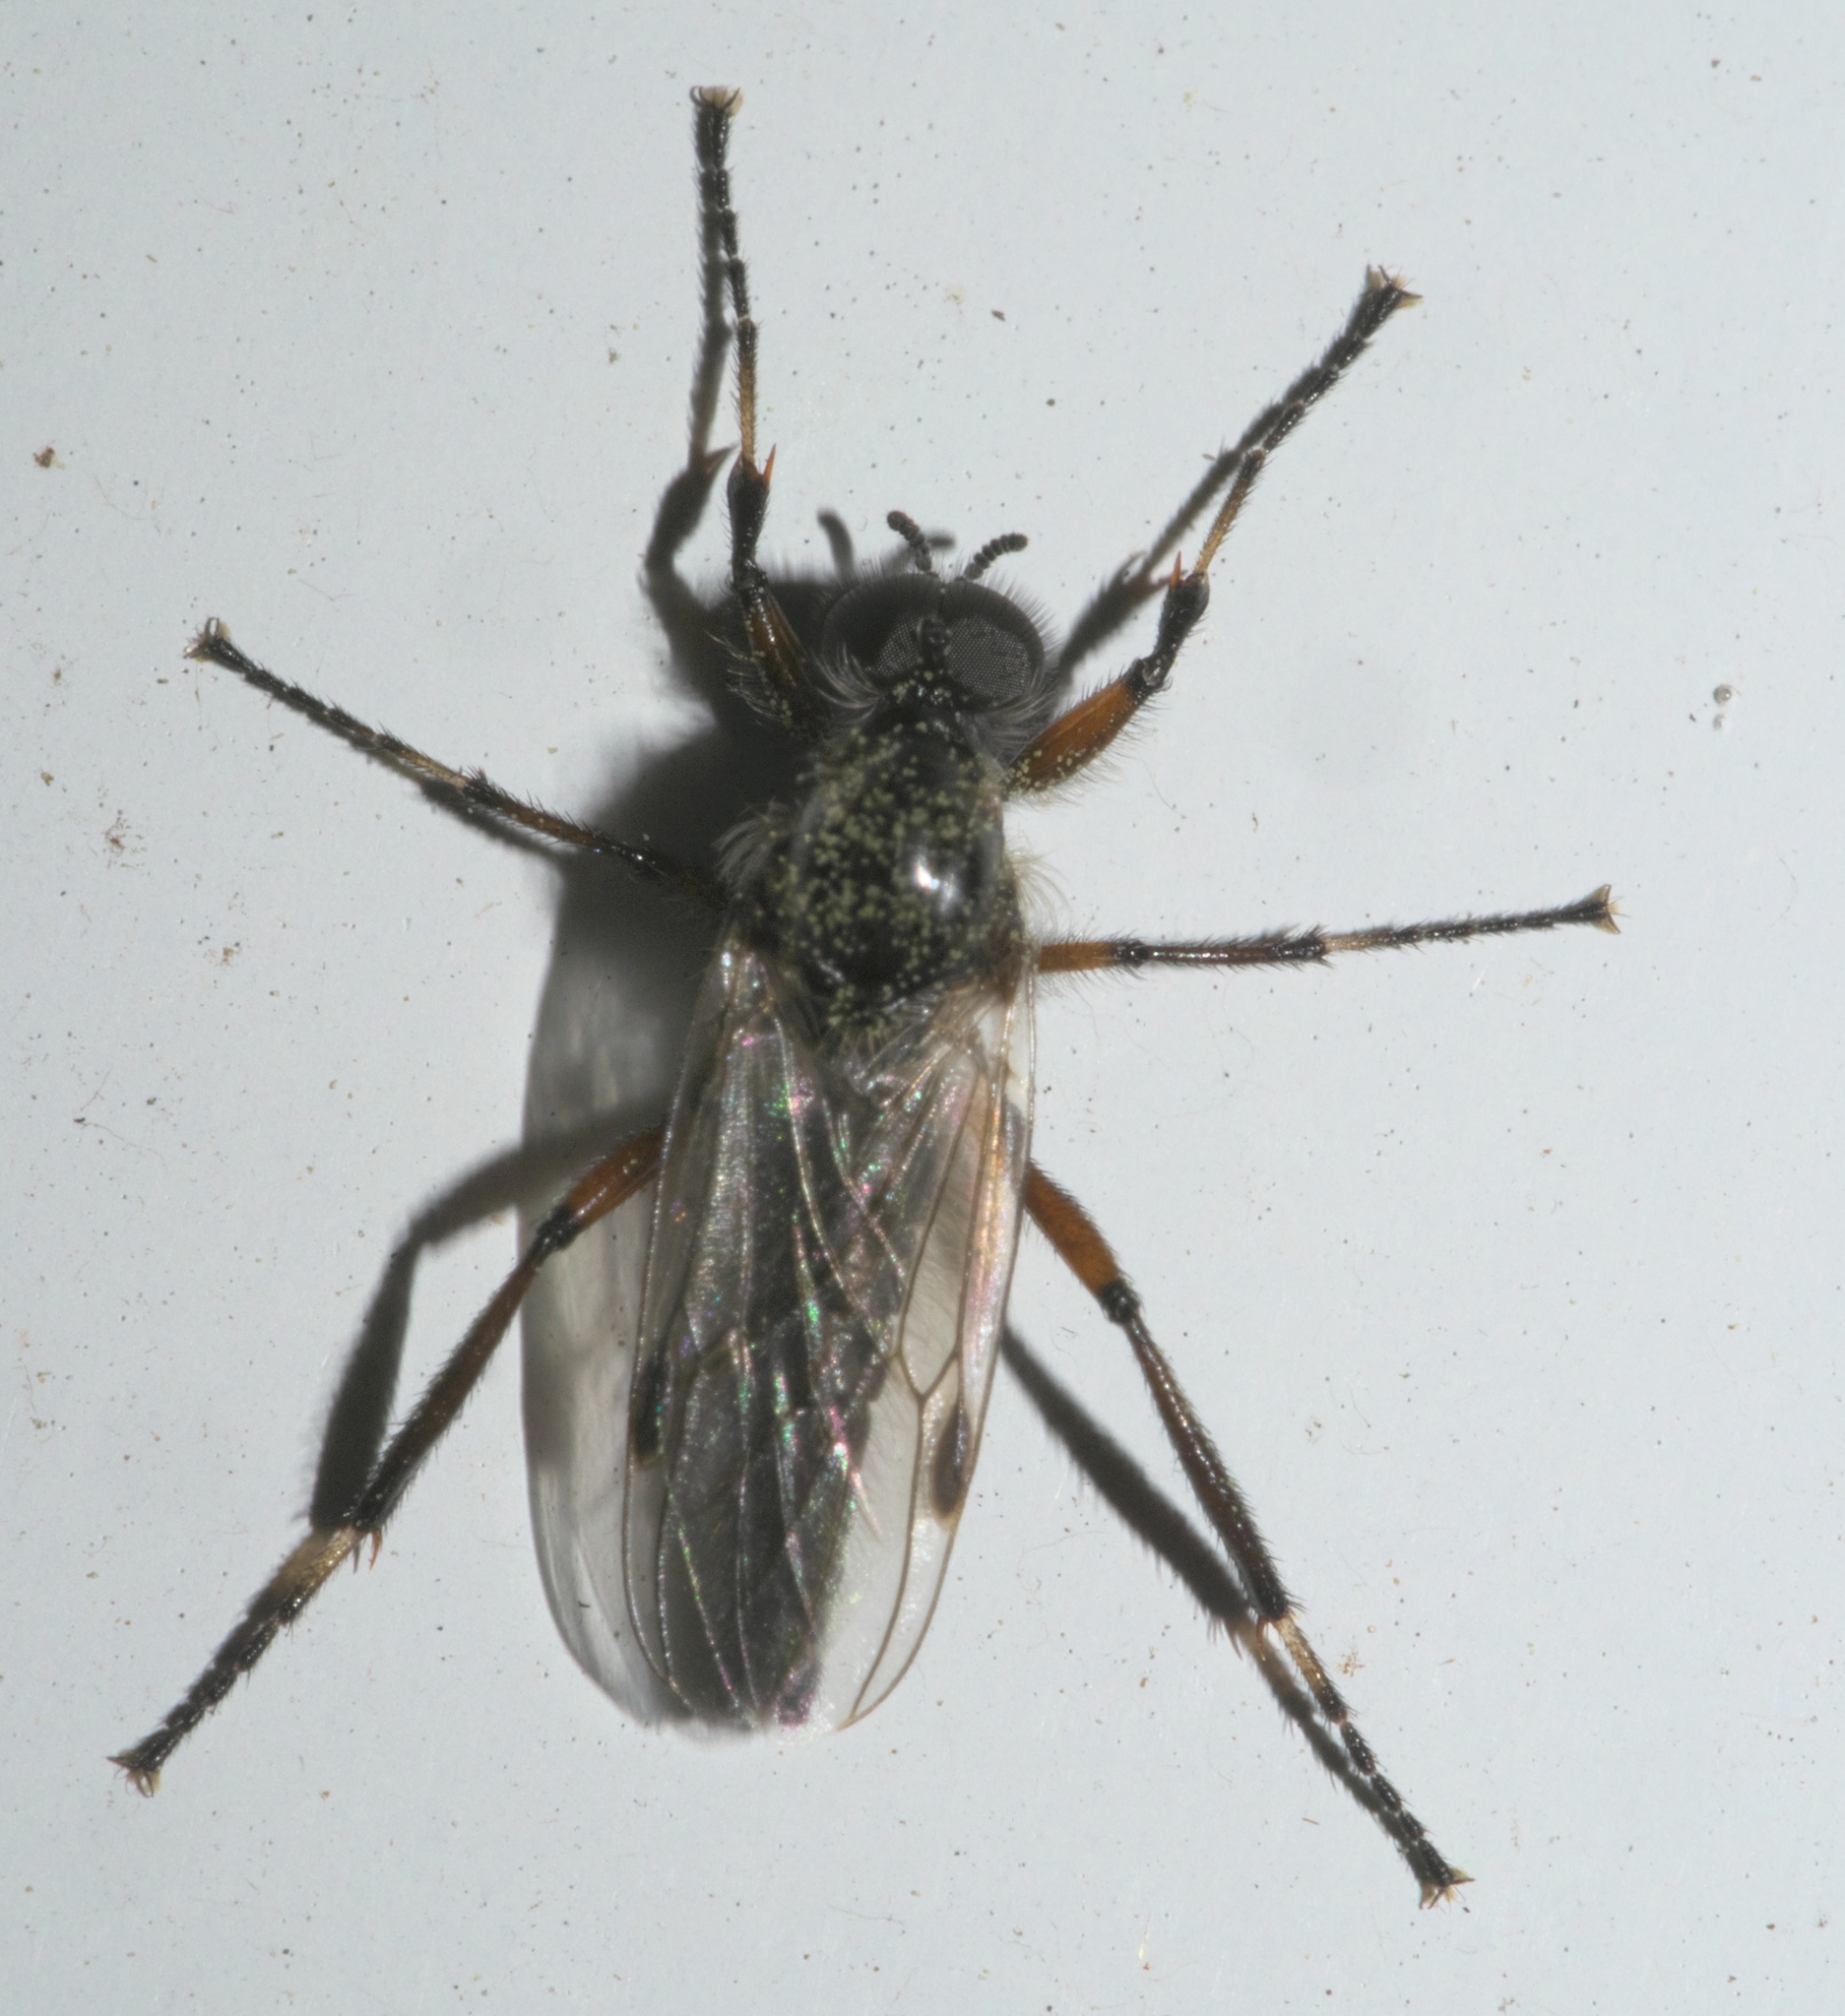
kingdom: Animalia
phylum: Arthropoda
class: Insecta
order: Diptera
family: Bibionidae
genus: Bibio
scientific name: Bibio articulatus
